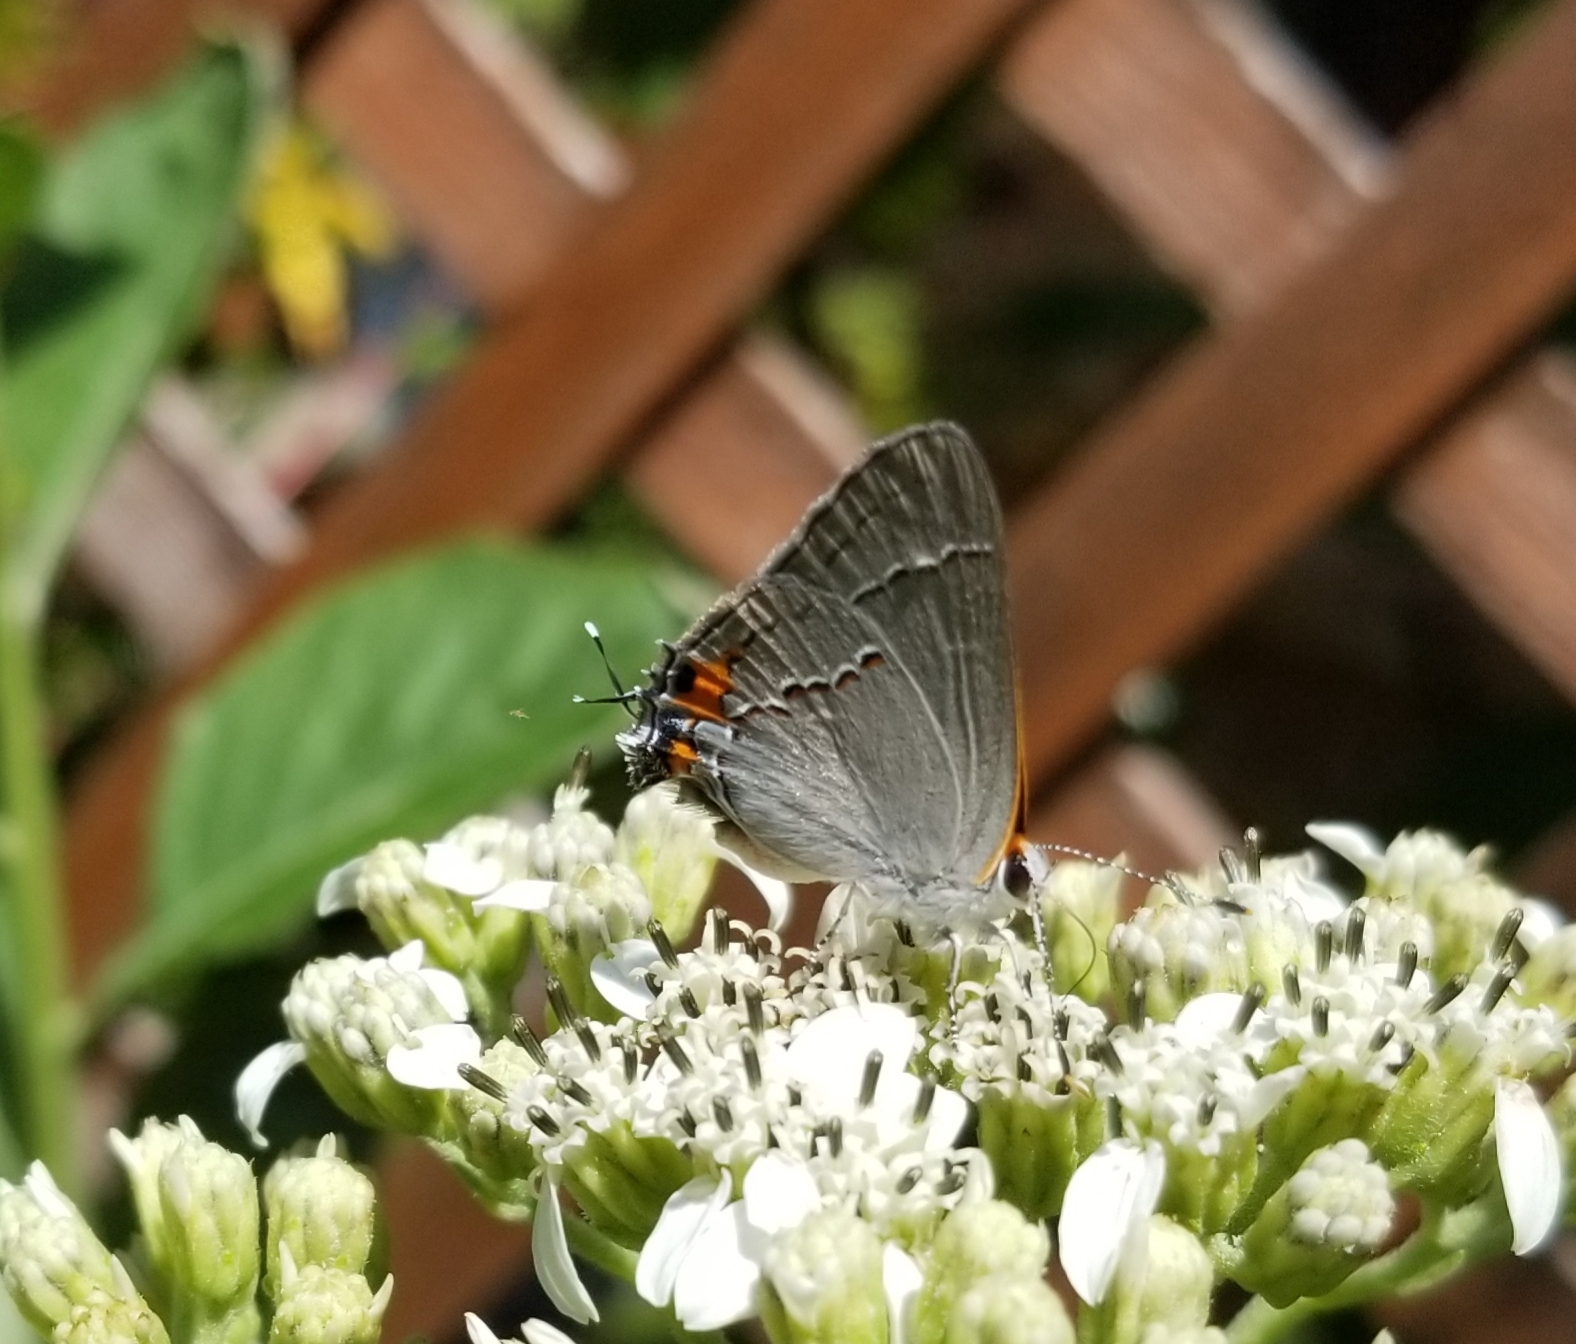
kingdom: Animalia
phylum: Arthropoda
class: Insecta
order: Lepidoptera
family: Lycaenidae
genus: Strymon
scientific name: Strymon melinus
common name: Gray hairstreak
